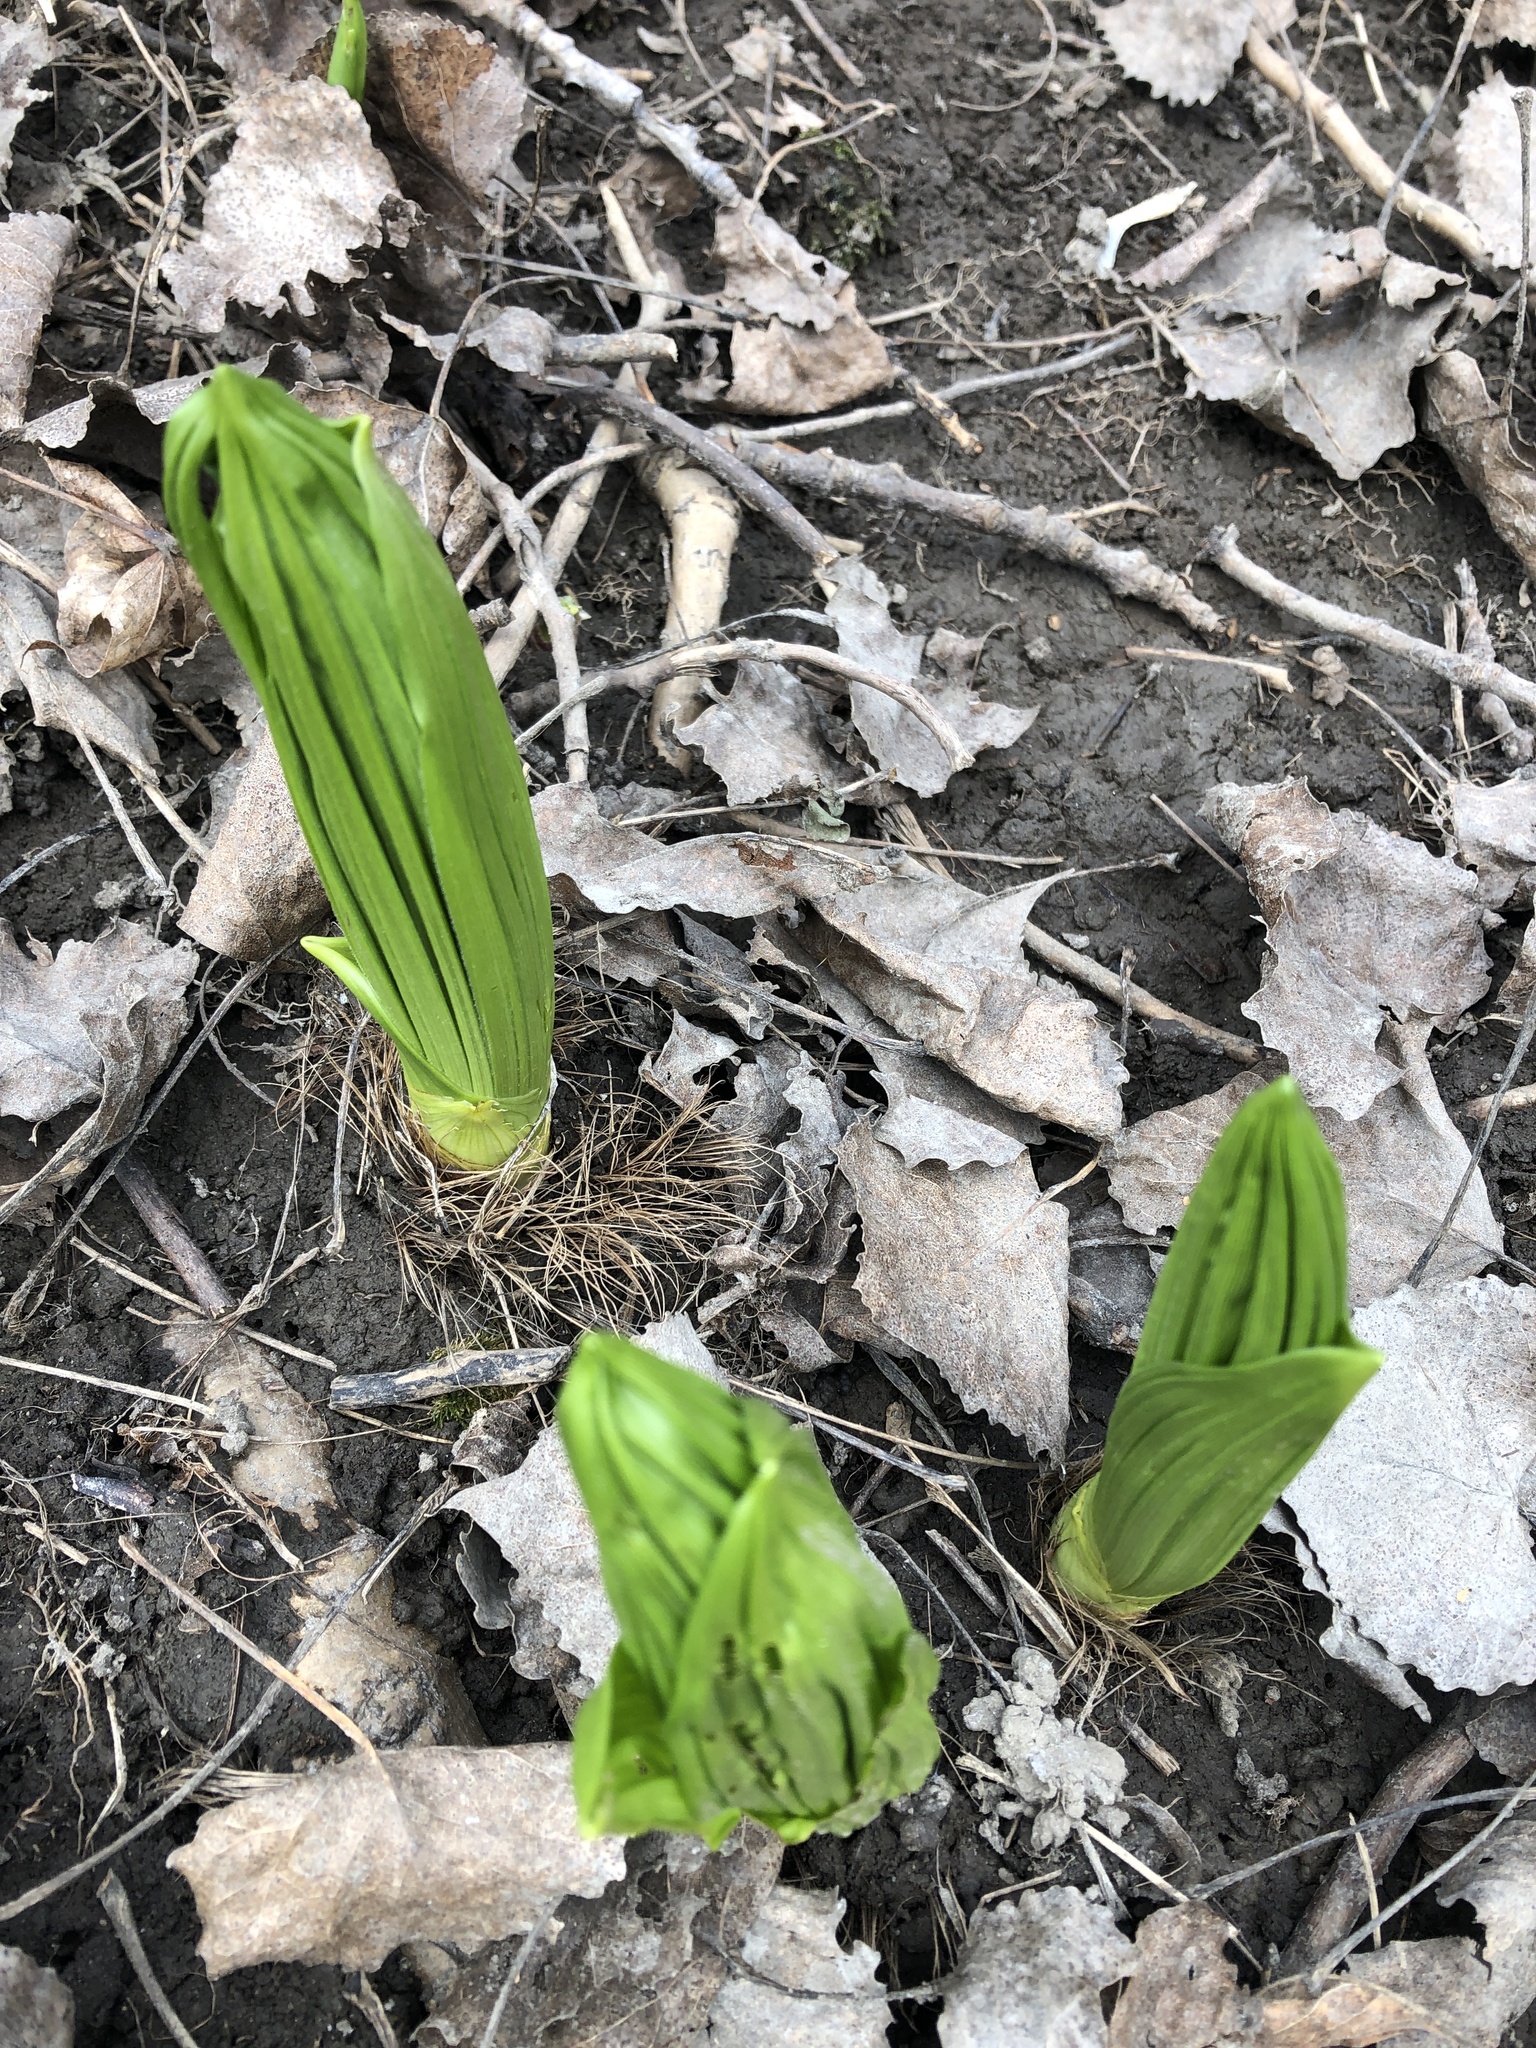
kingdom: Plantae
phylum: Tracheophyta
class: Liliopsida
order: Liliales
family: Melanthiaceae
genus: Veratrum
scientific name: Veratrum viride
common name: American false hellebore
